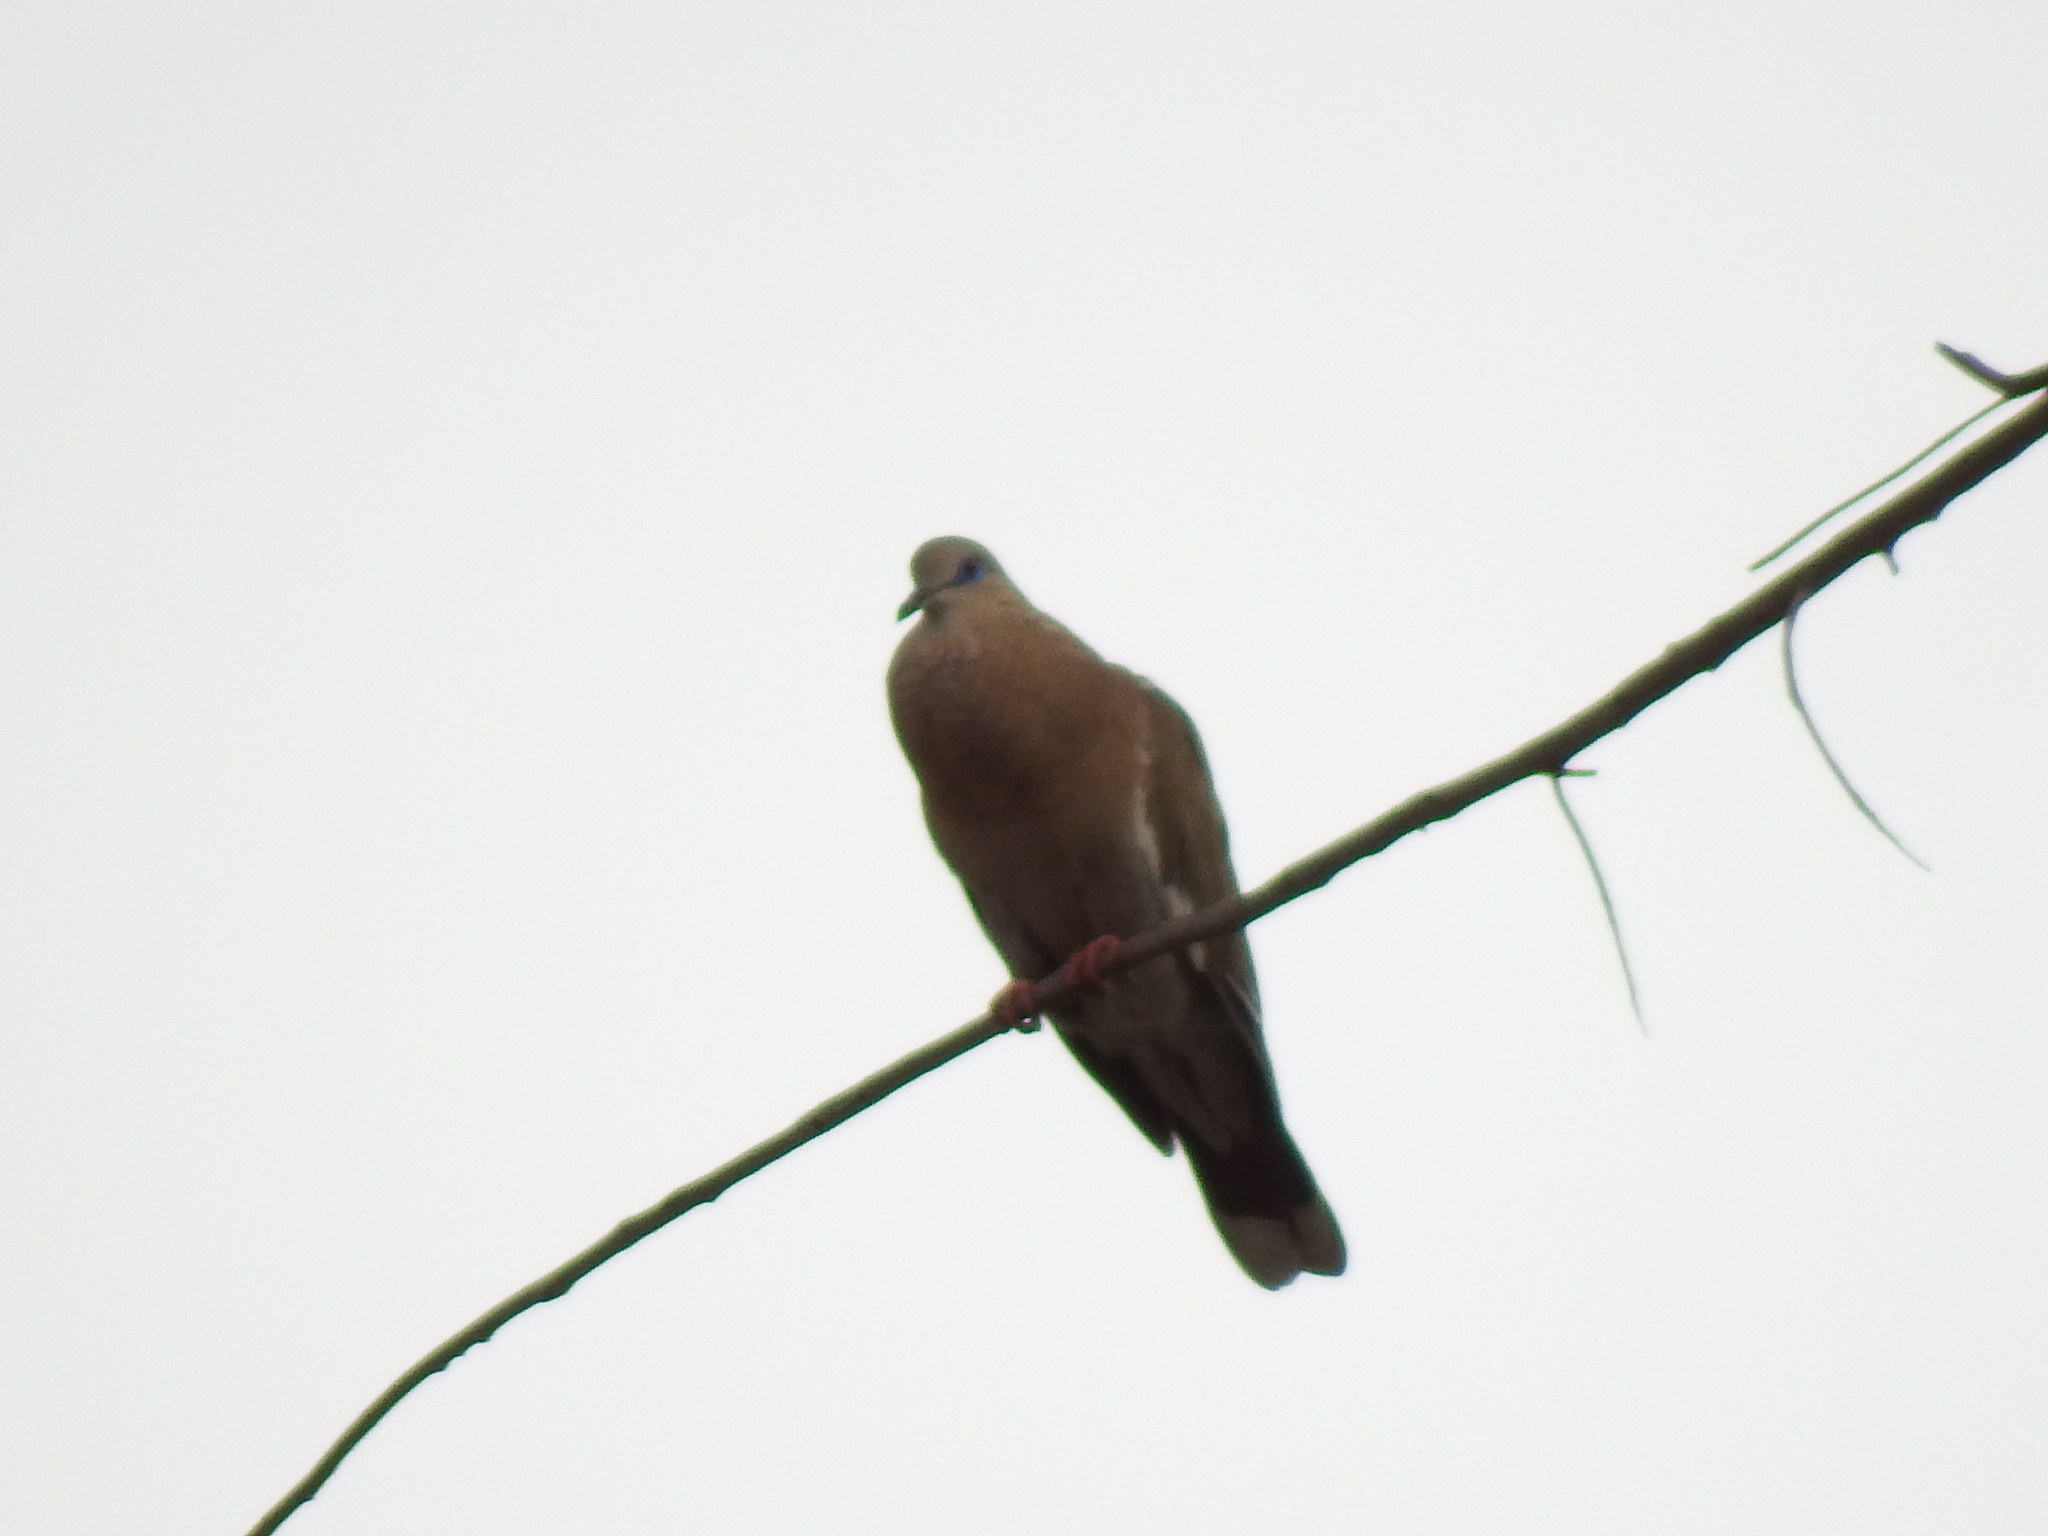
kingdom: Animalia
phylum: Chordata
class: Aves
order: Columbiformes
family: Columbidae
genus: Zenaida
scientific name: Zenaida meloda
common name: West peruvian dove
